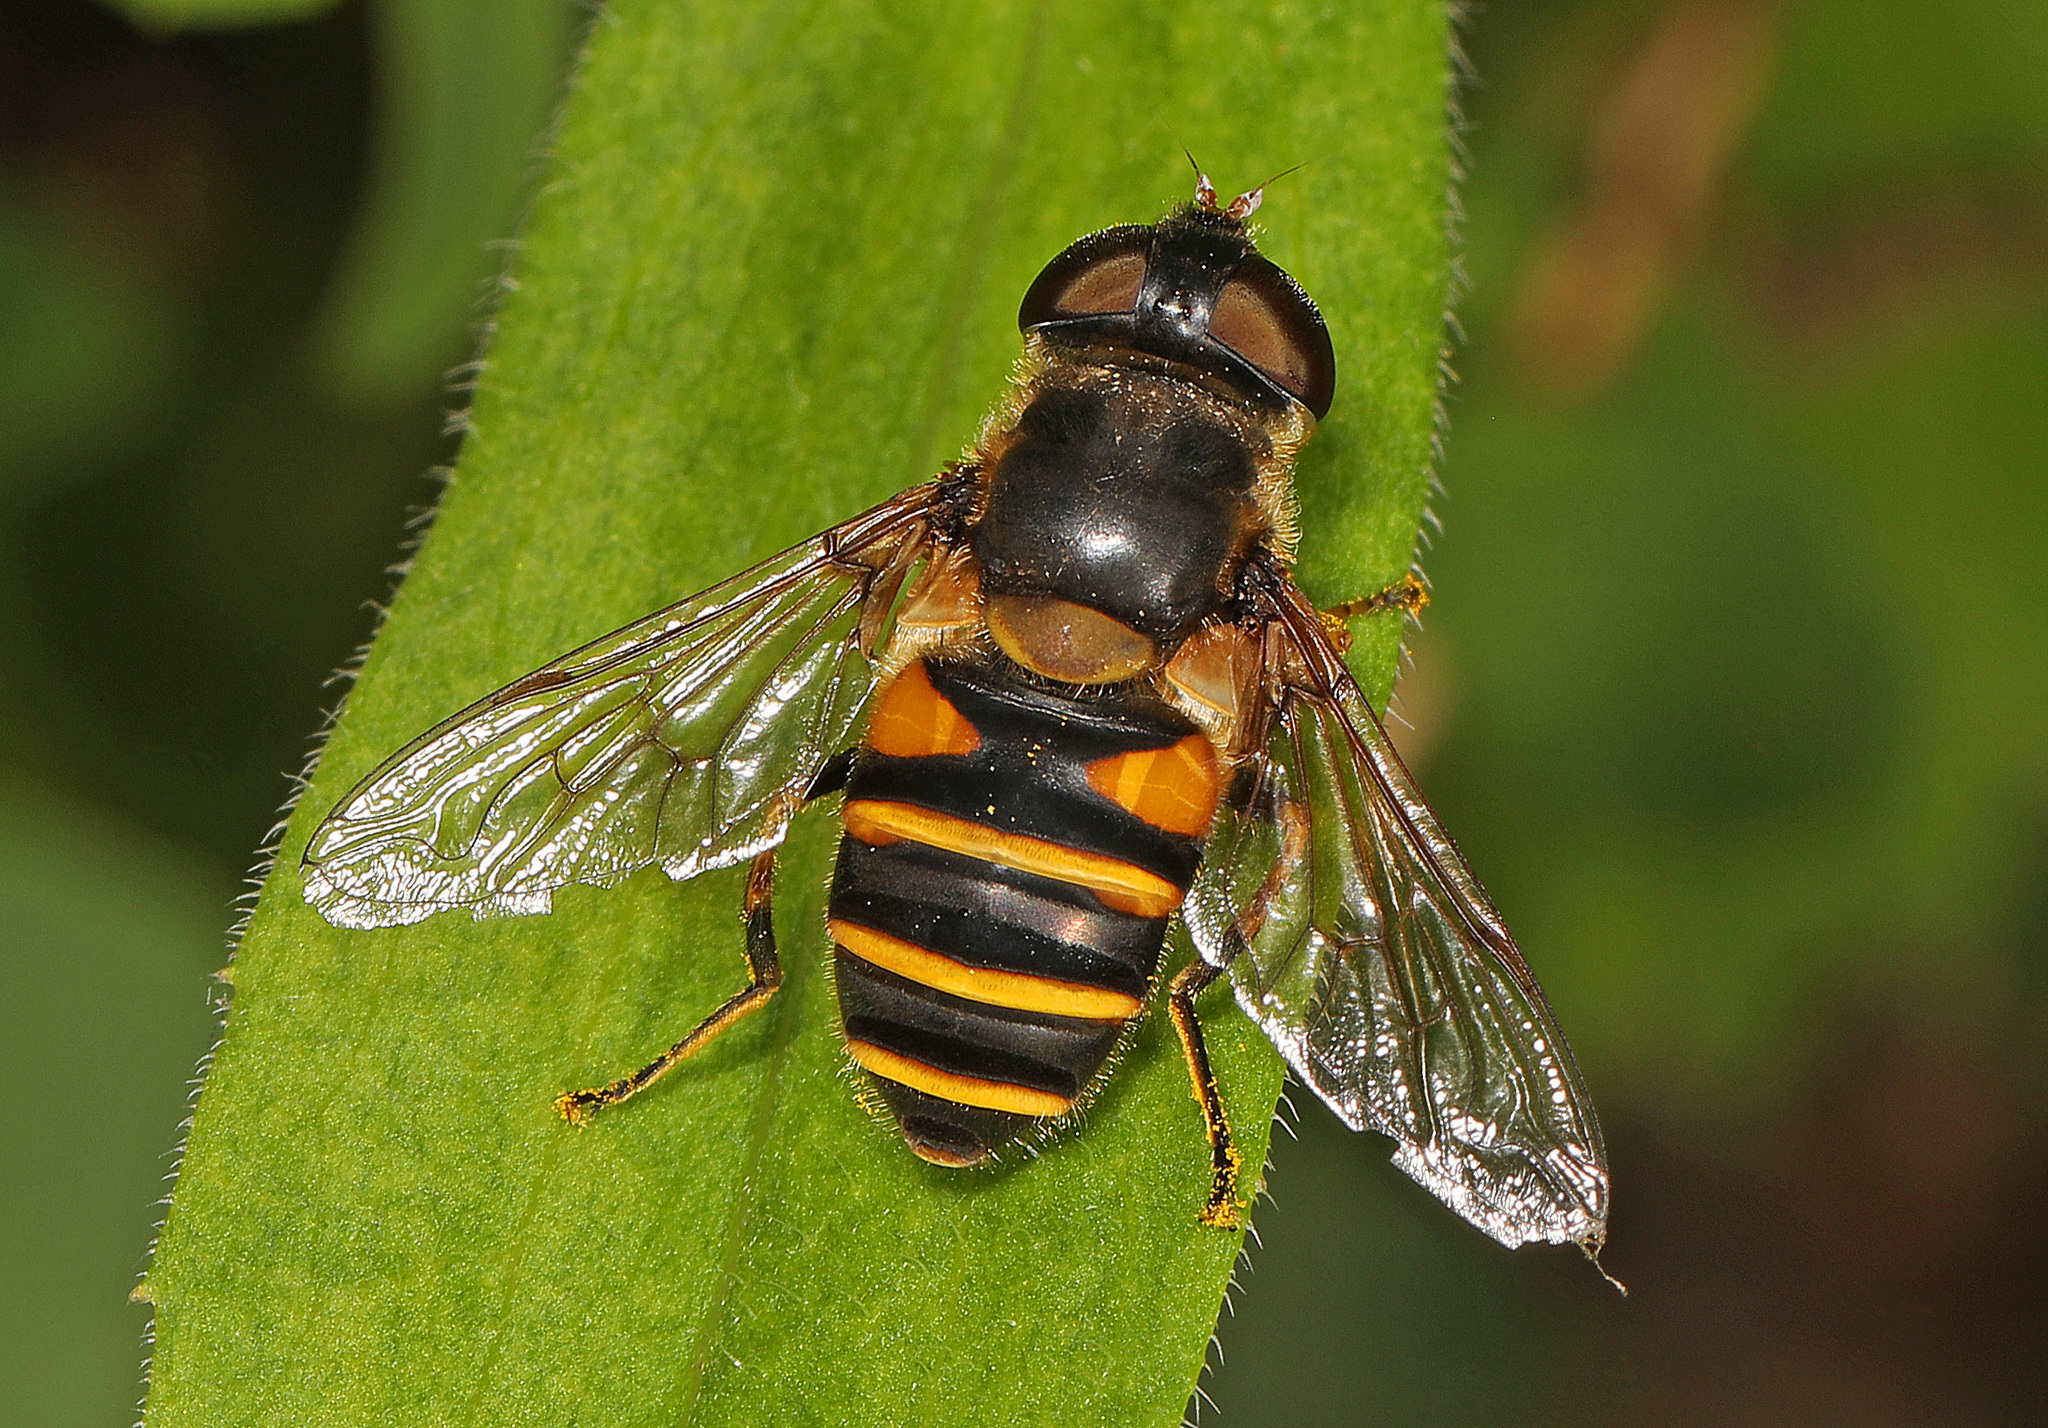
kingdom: Animalia
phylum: Arthropoda
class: Insecta
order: Diptera
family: Syrphidae
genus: Eristalis
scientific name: Eristalis transversa
